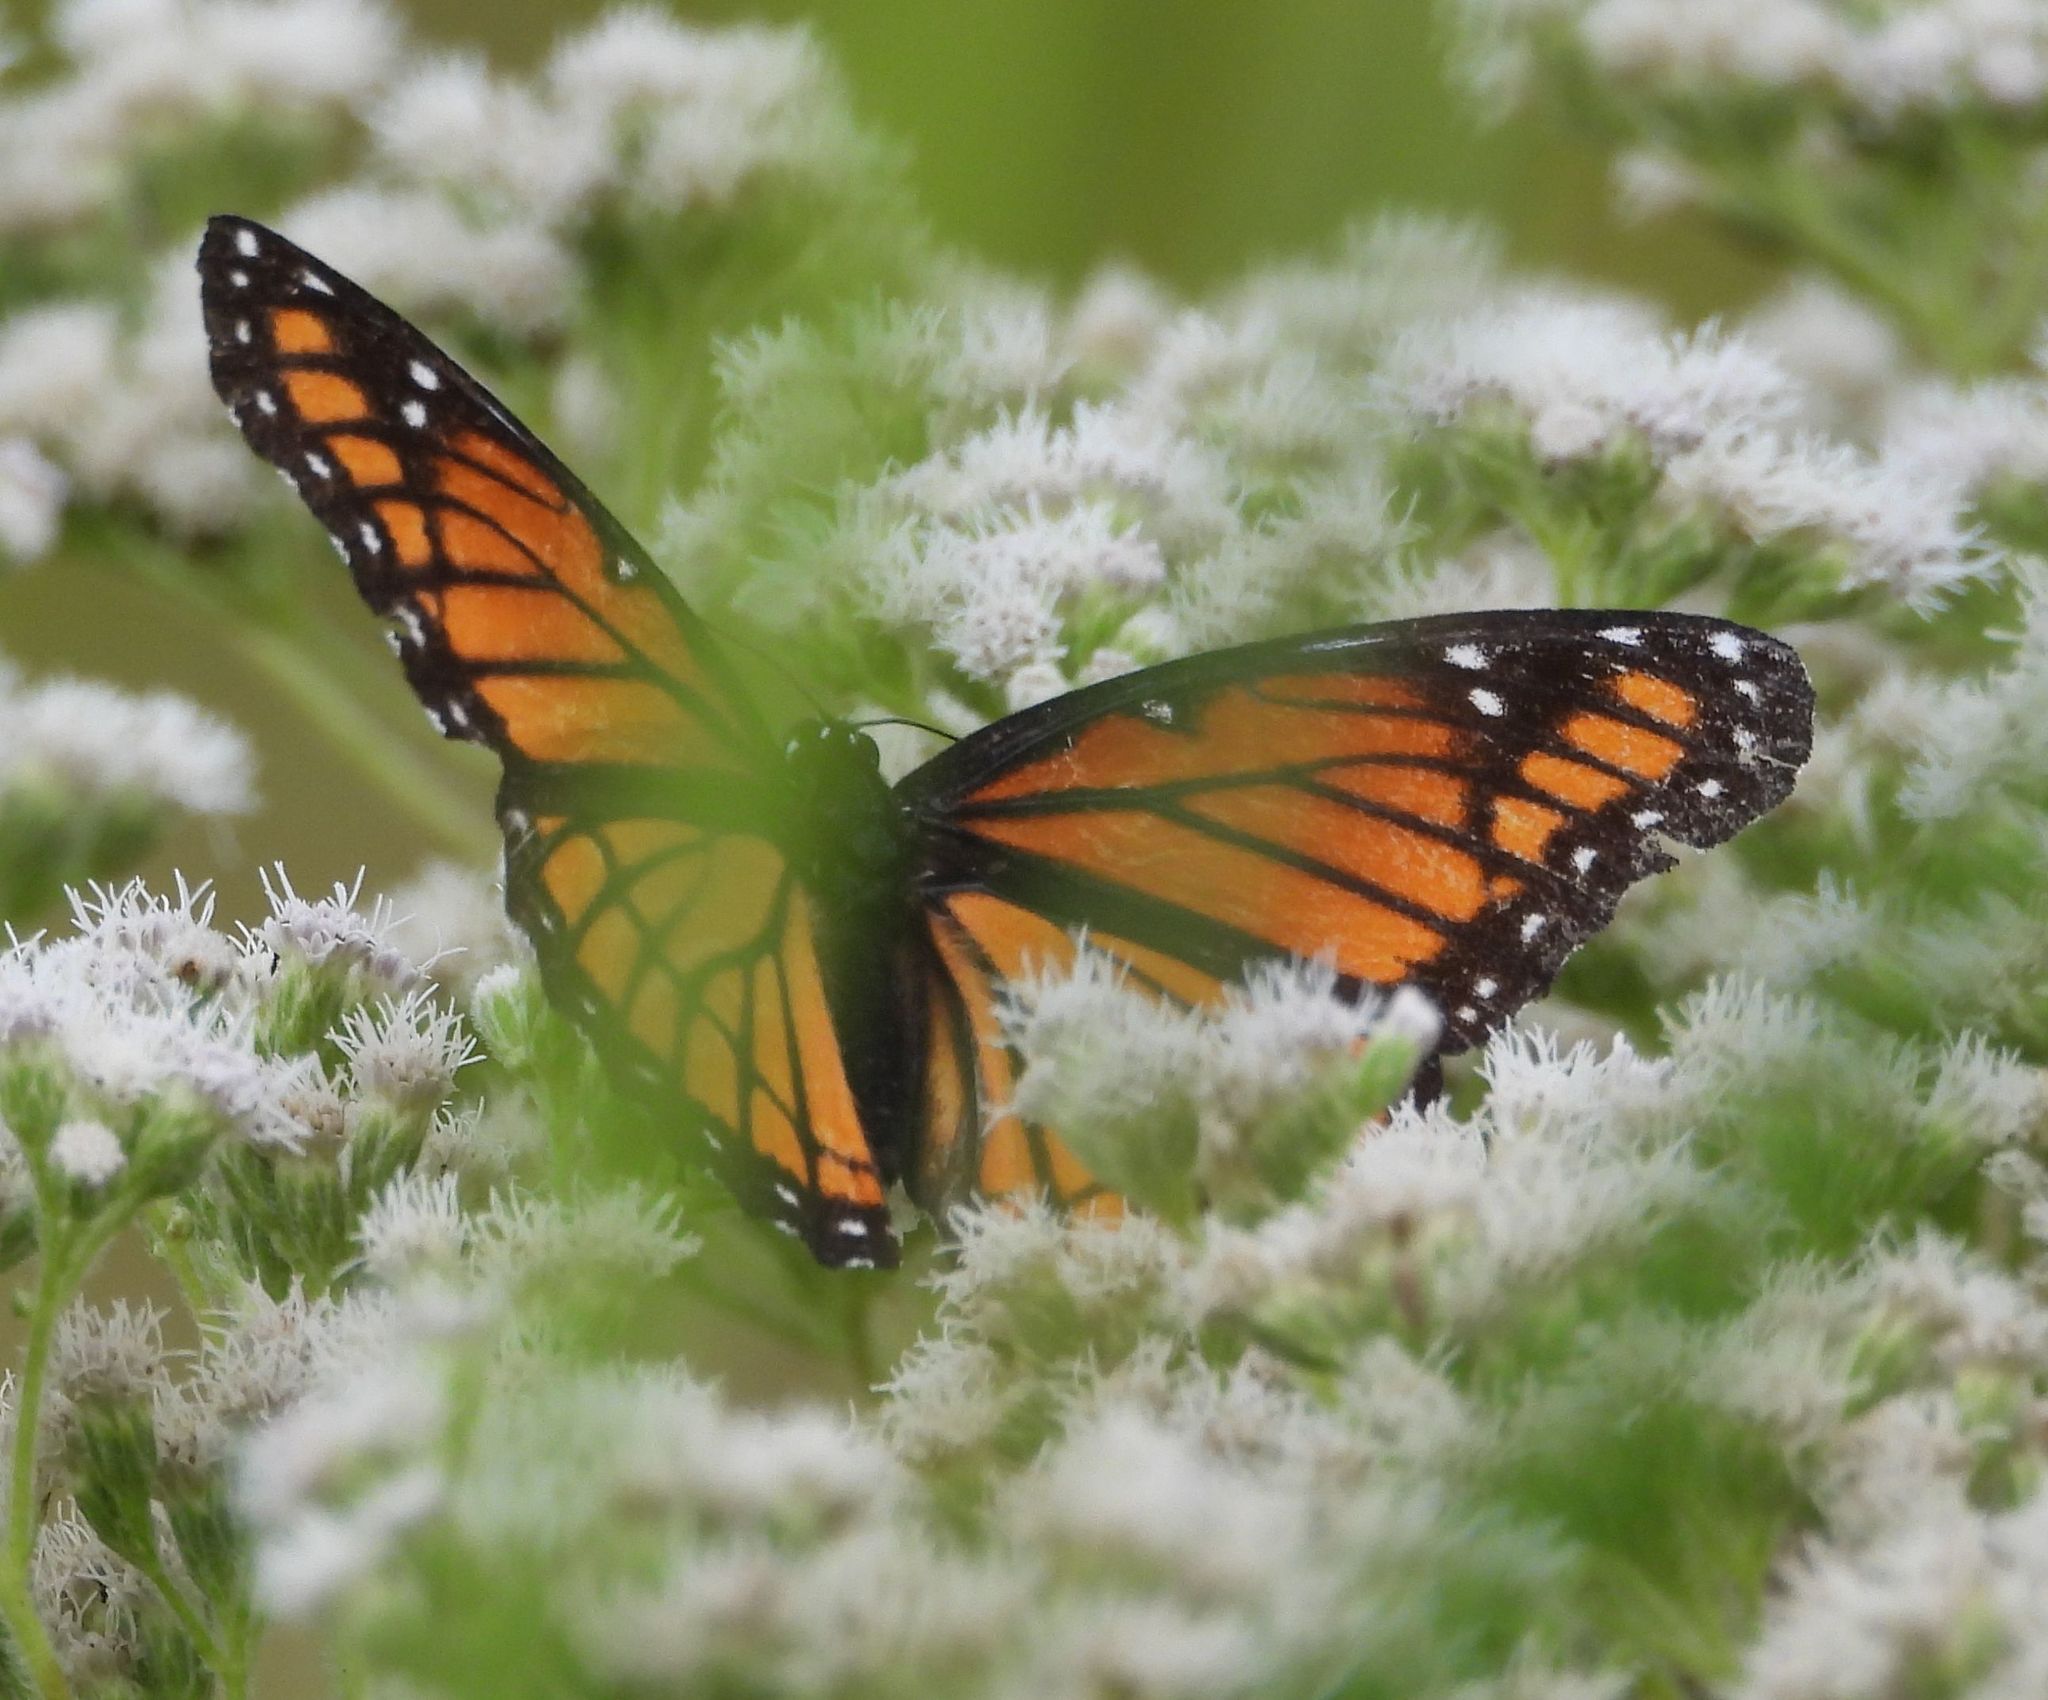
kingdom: Animalia
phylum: Arthropoda
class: Insecta
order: Lepidoptera
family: Nymphalidae
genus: Limenitis
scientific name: Limenitis archippus
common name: Viceroy
